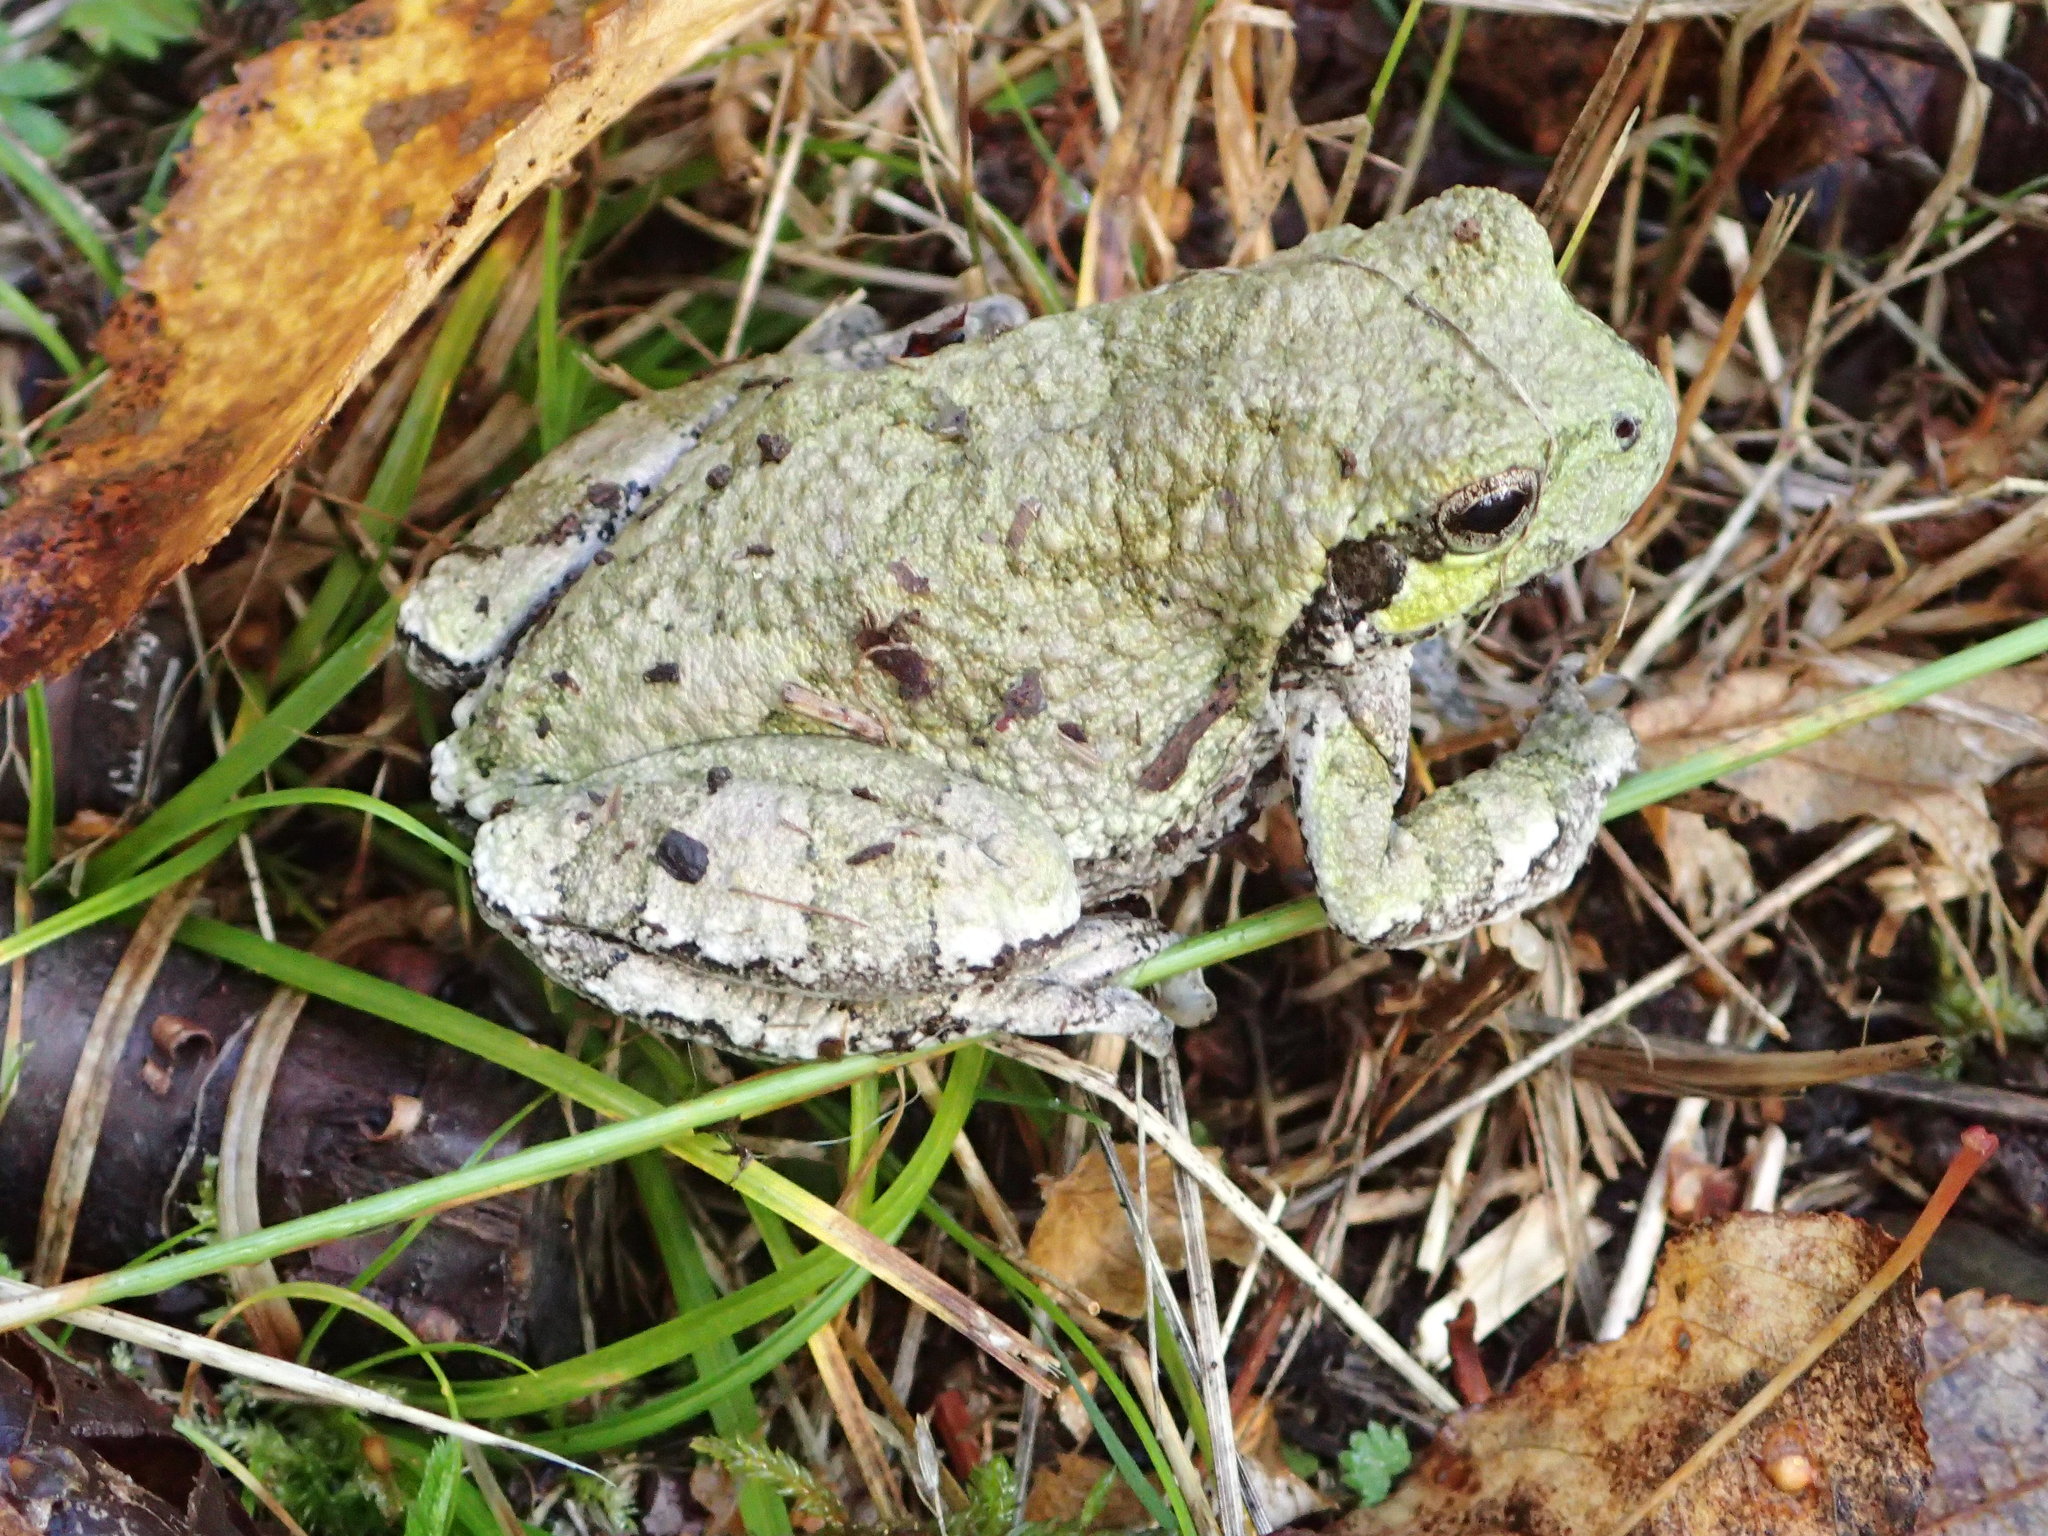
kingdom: Animalia
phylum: Chordata
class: Amphibia
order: Anura
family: Hylidae
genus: Dryophytes
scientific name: Dryophytes versicolor
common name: Gray treefrog
